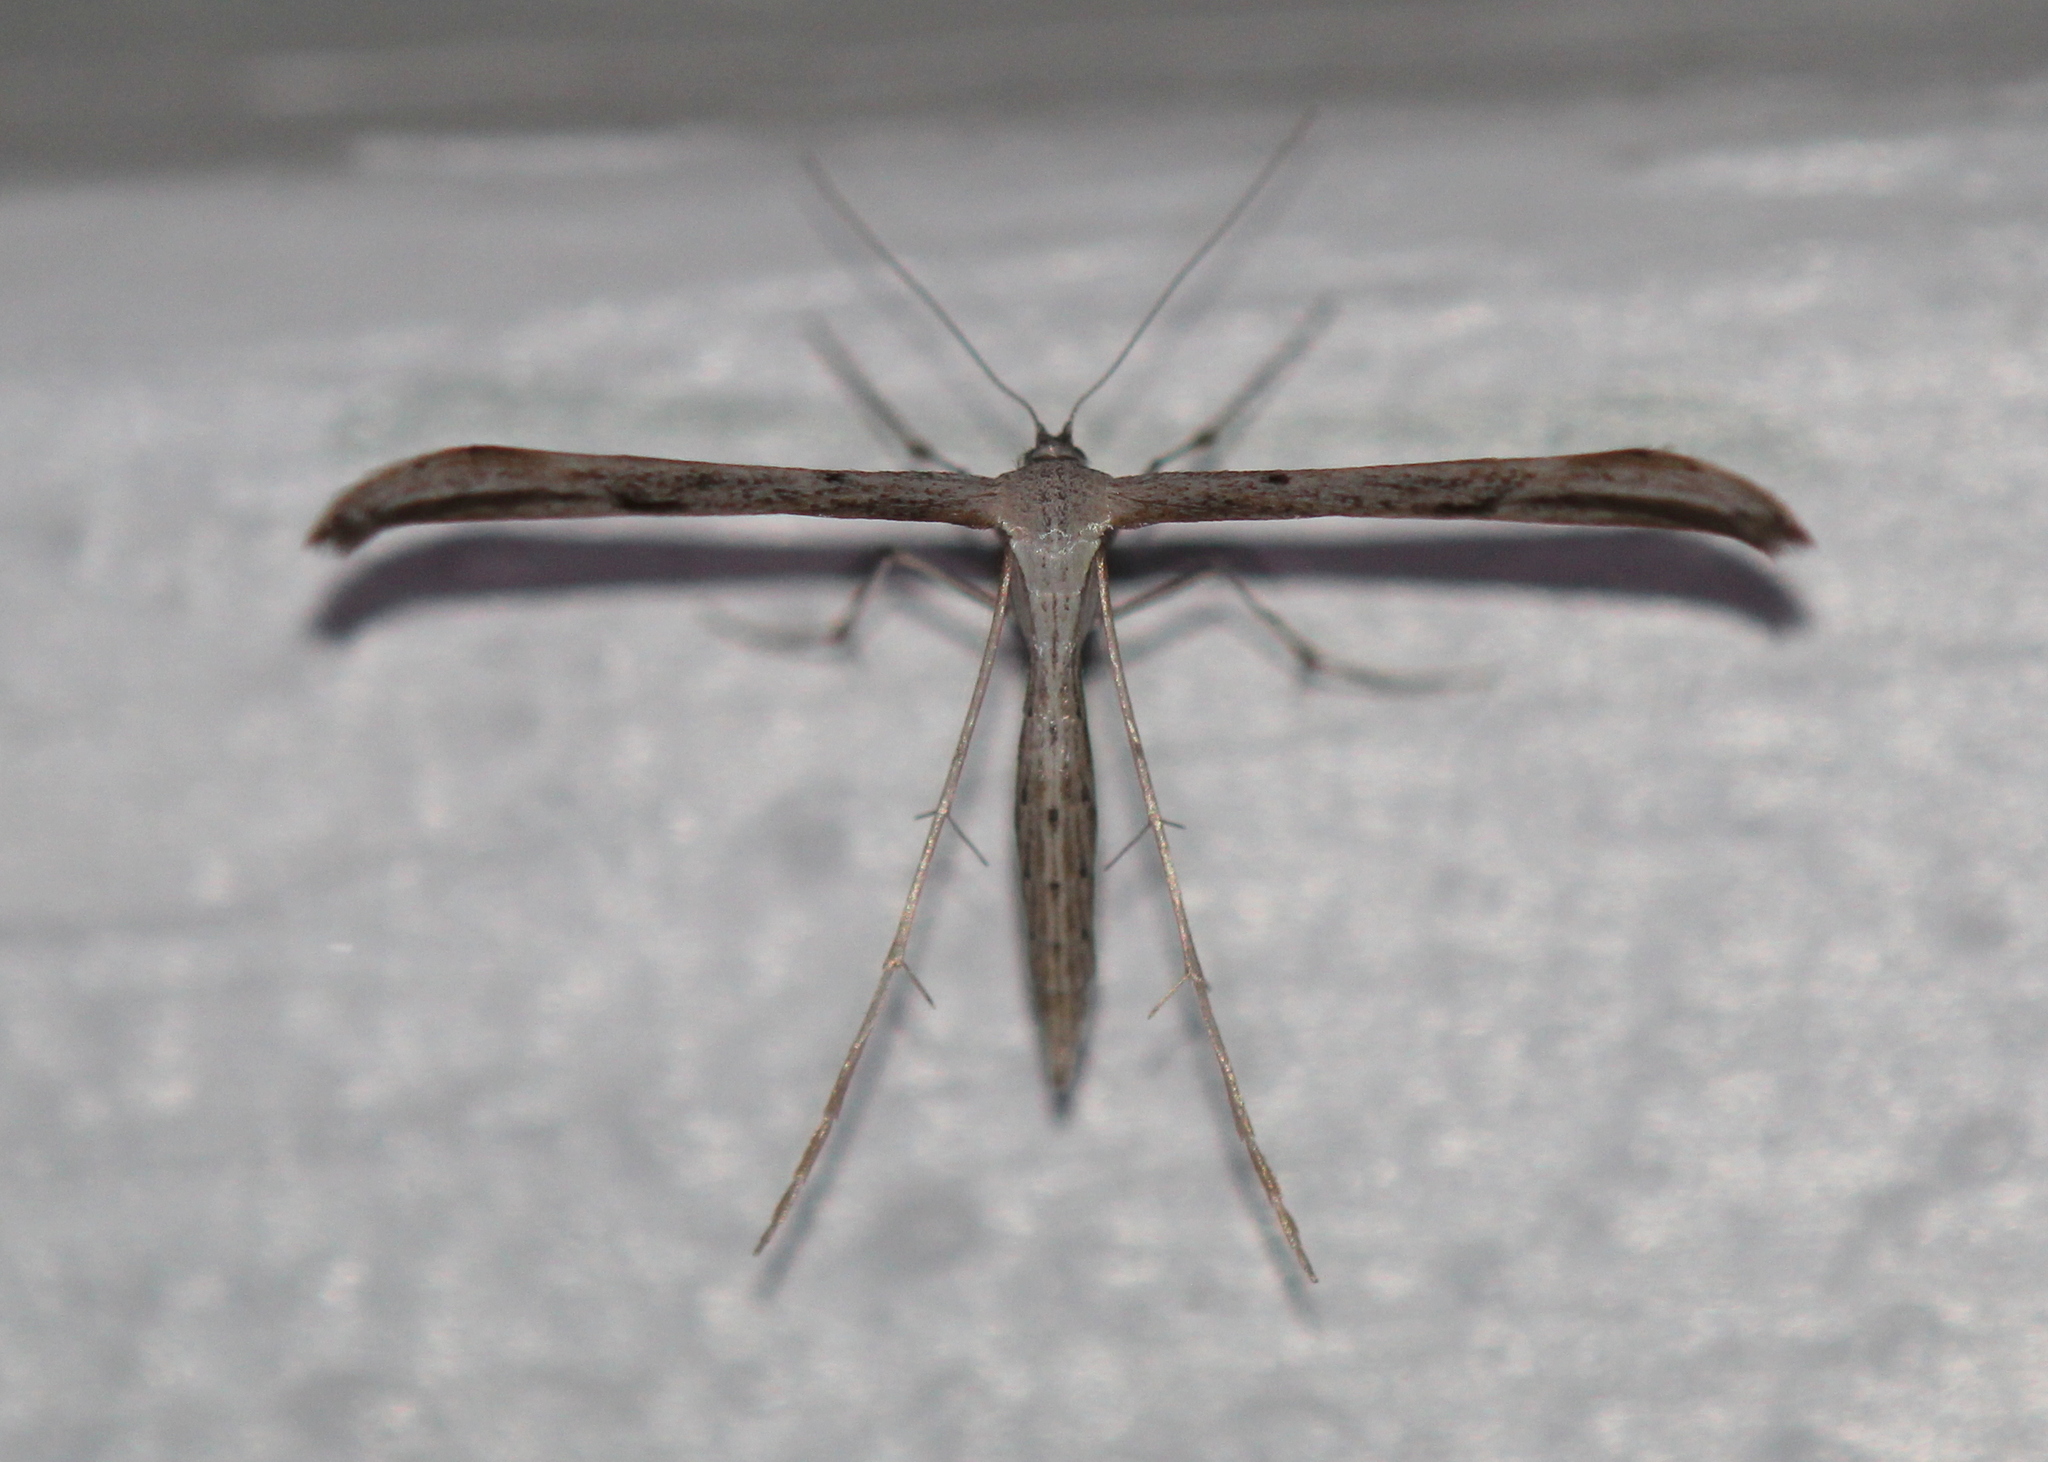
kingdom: Animalia
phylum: Arthropoda
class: Insecta
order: Lepidoptera
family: Pterophoridae
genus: Emmelina
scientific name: Emmelina monodactyla
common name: Common plume
